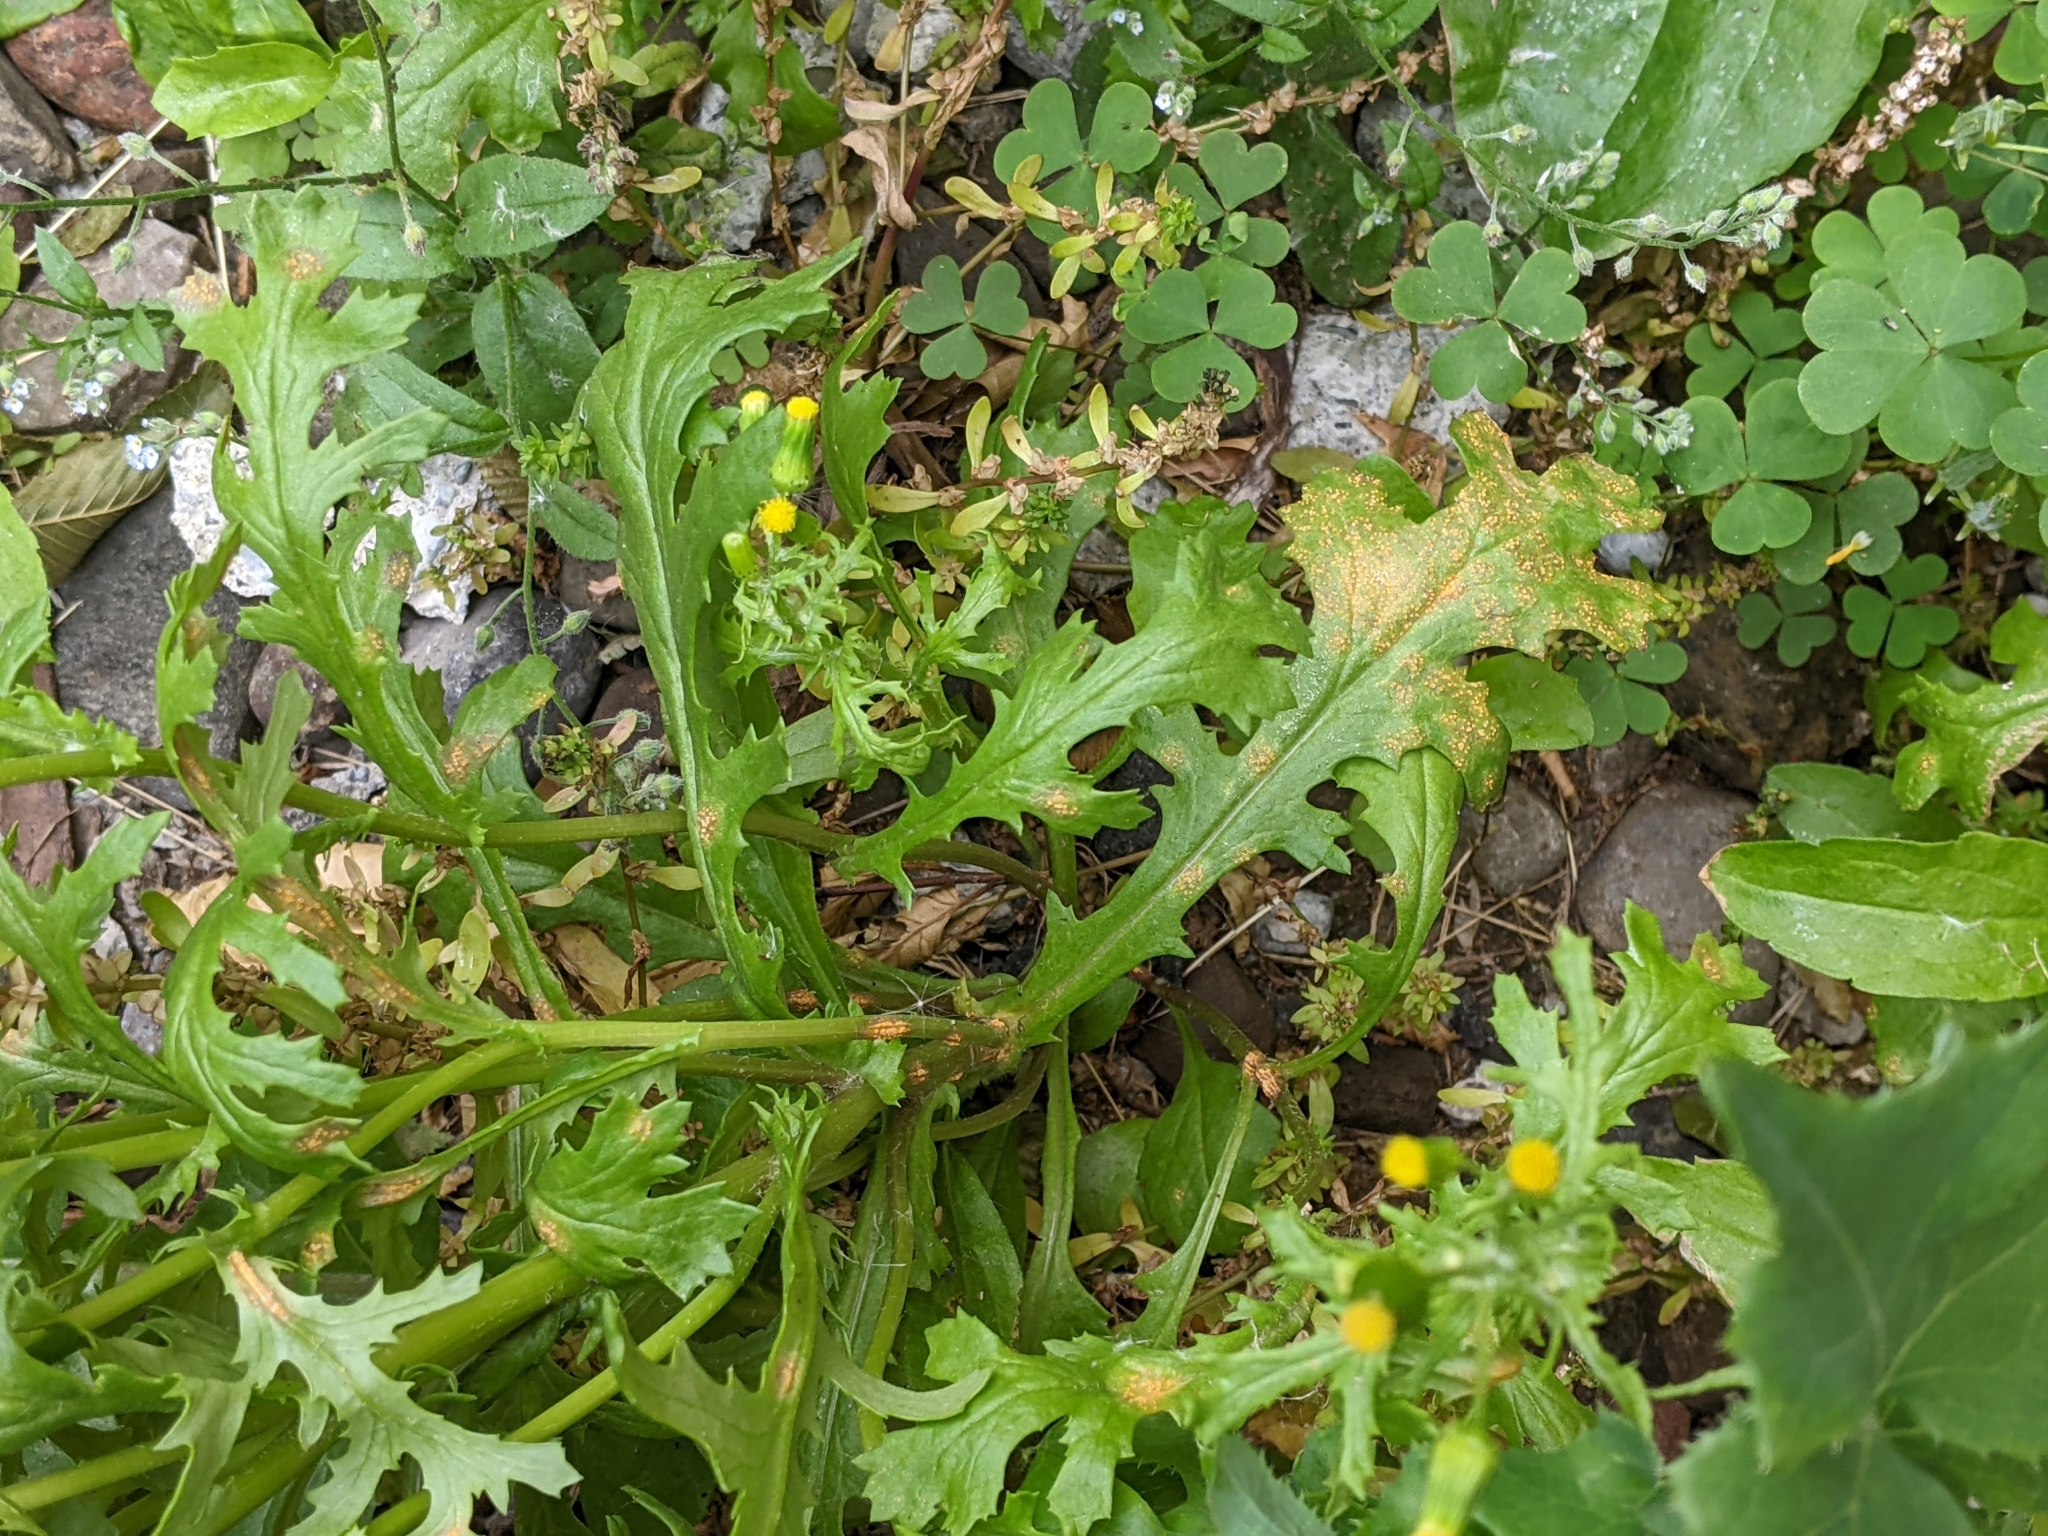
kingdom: Fungi
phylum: Basidiomycota
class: Pucciniomycetes
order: Pucciniales
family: Pucciniaceae
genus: Puccinia
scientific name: Puccinia lagenophorae
